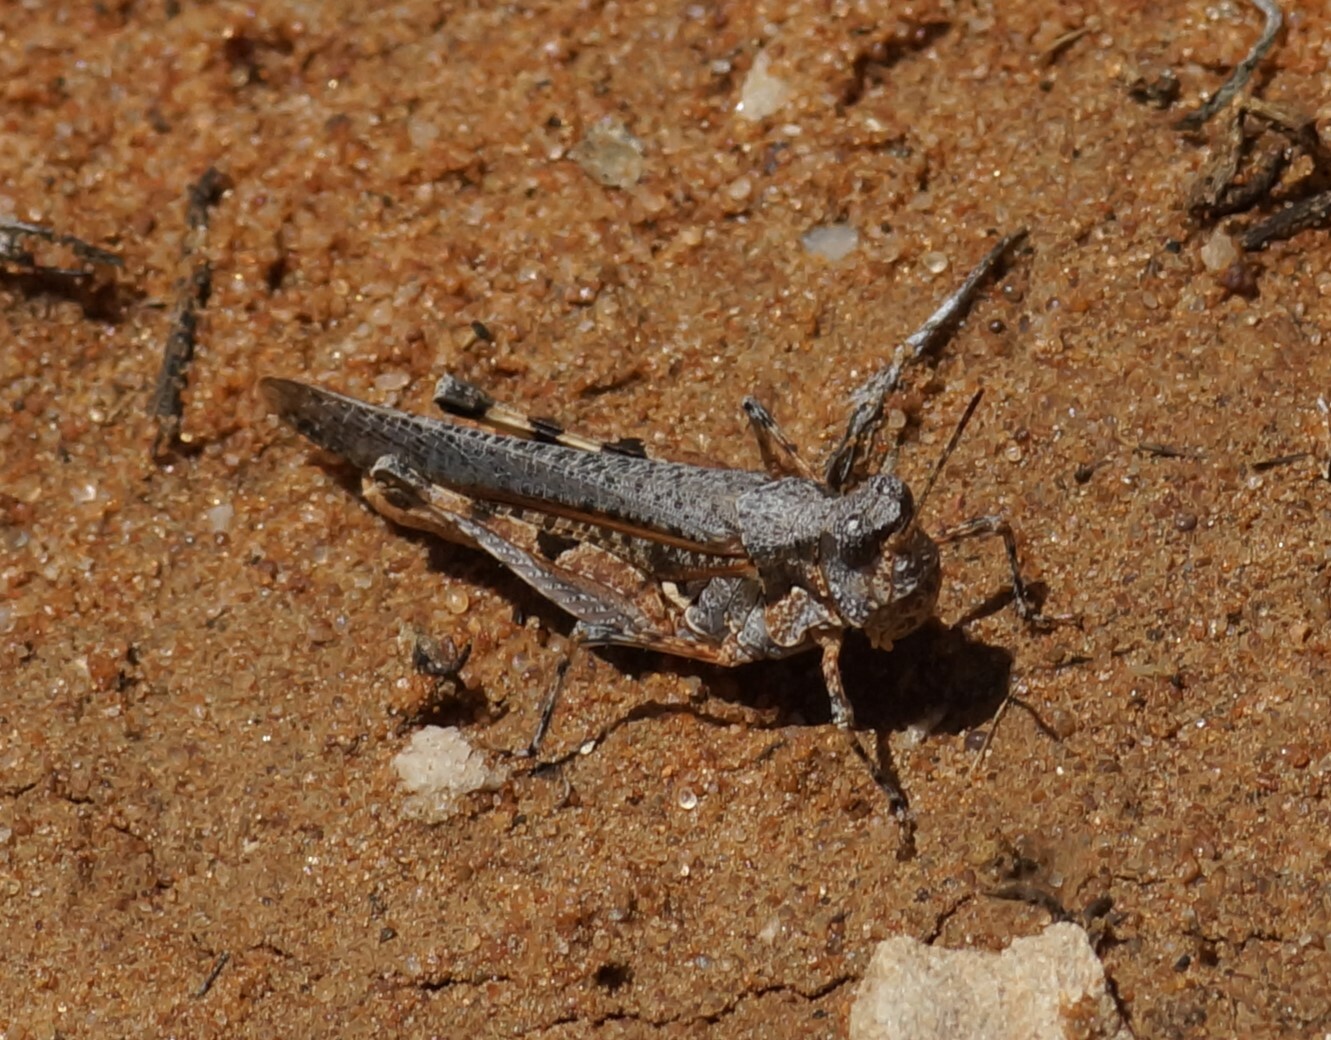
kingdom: Animalia
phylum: Arthropoda
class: Insecta
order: Orthoptera
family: Acrididae
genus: Pycnostictus
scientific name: Pycnostictus seriatus
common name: Common bandwing
